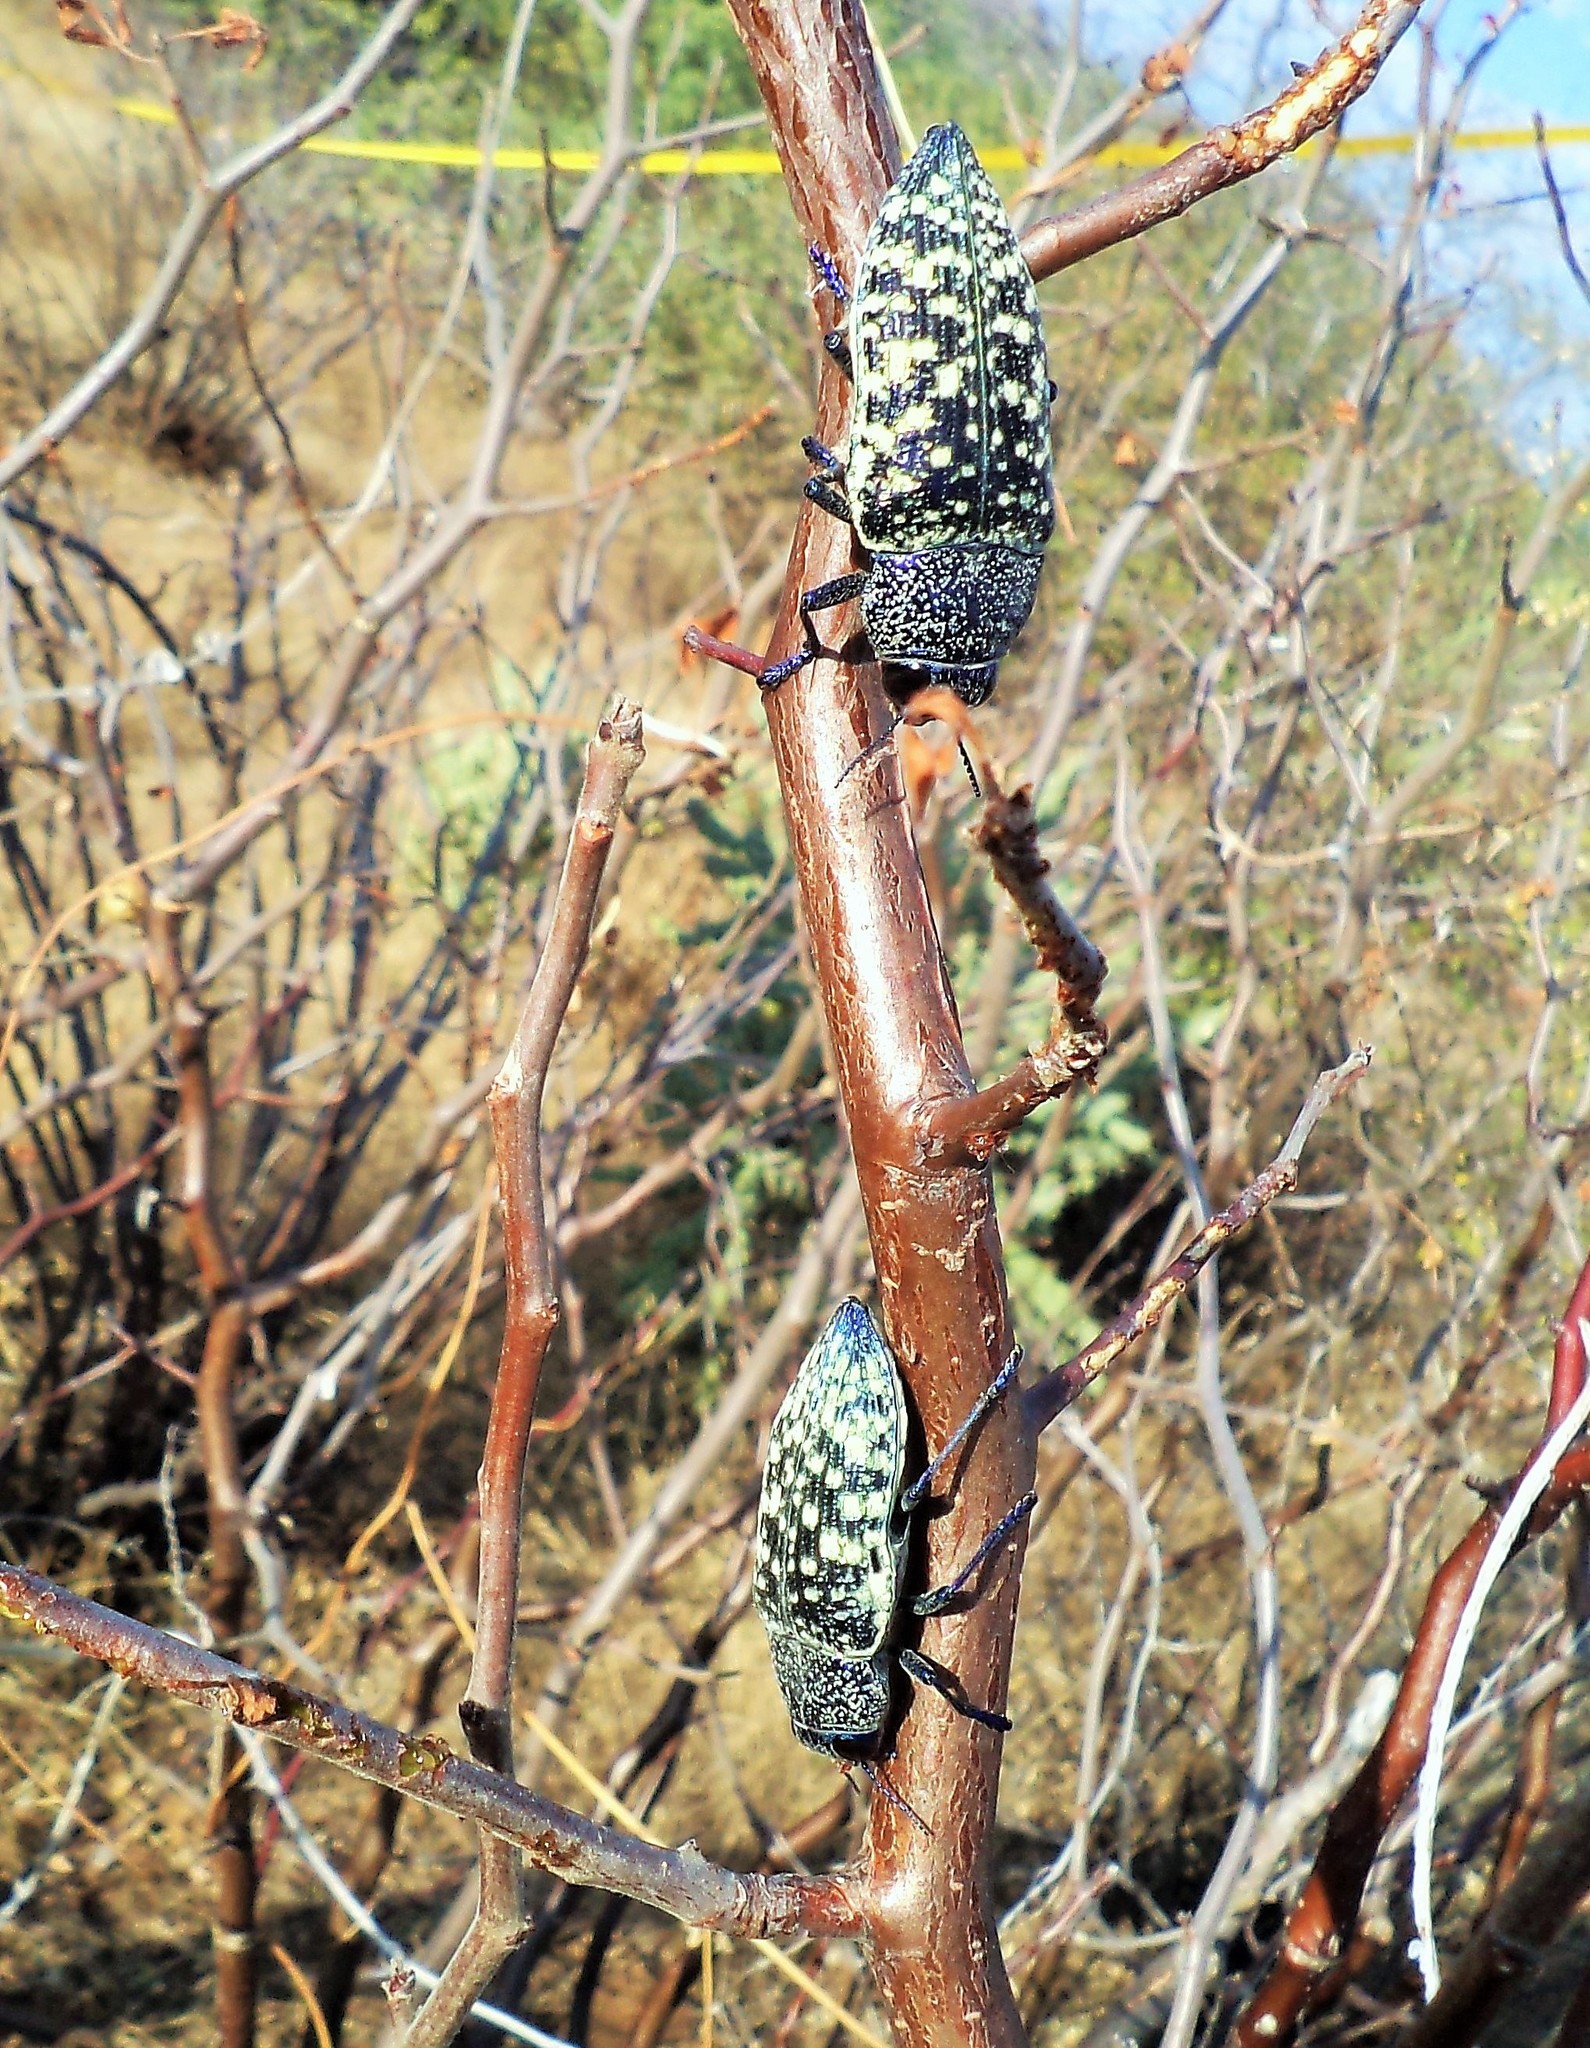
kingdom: Animalia
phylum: Arthropoda
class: Insecta
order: Coleoptera
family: Buprestidae
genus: Lampetis
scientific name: Lampetis webbii
